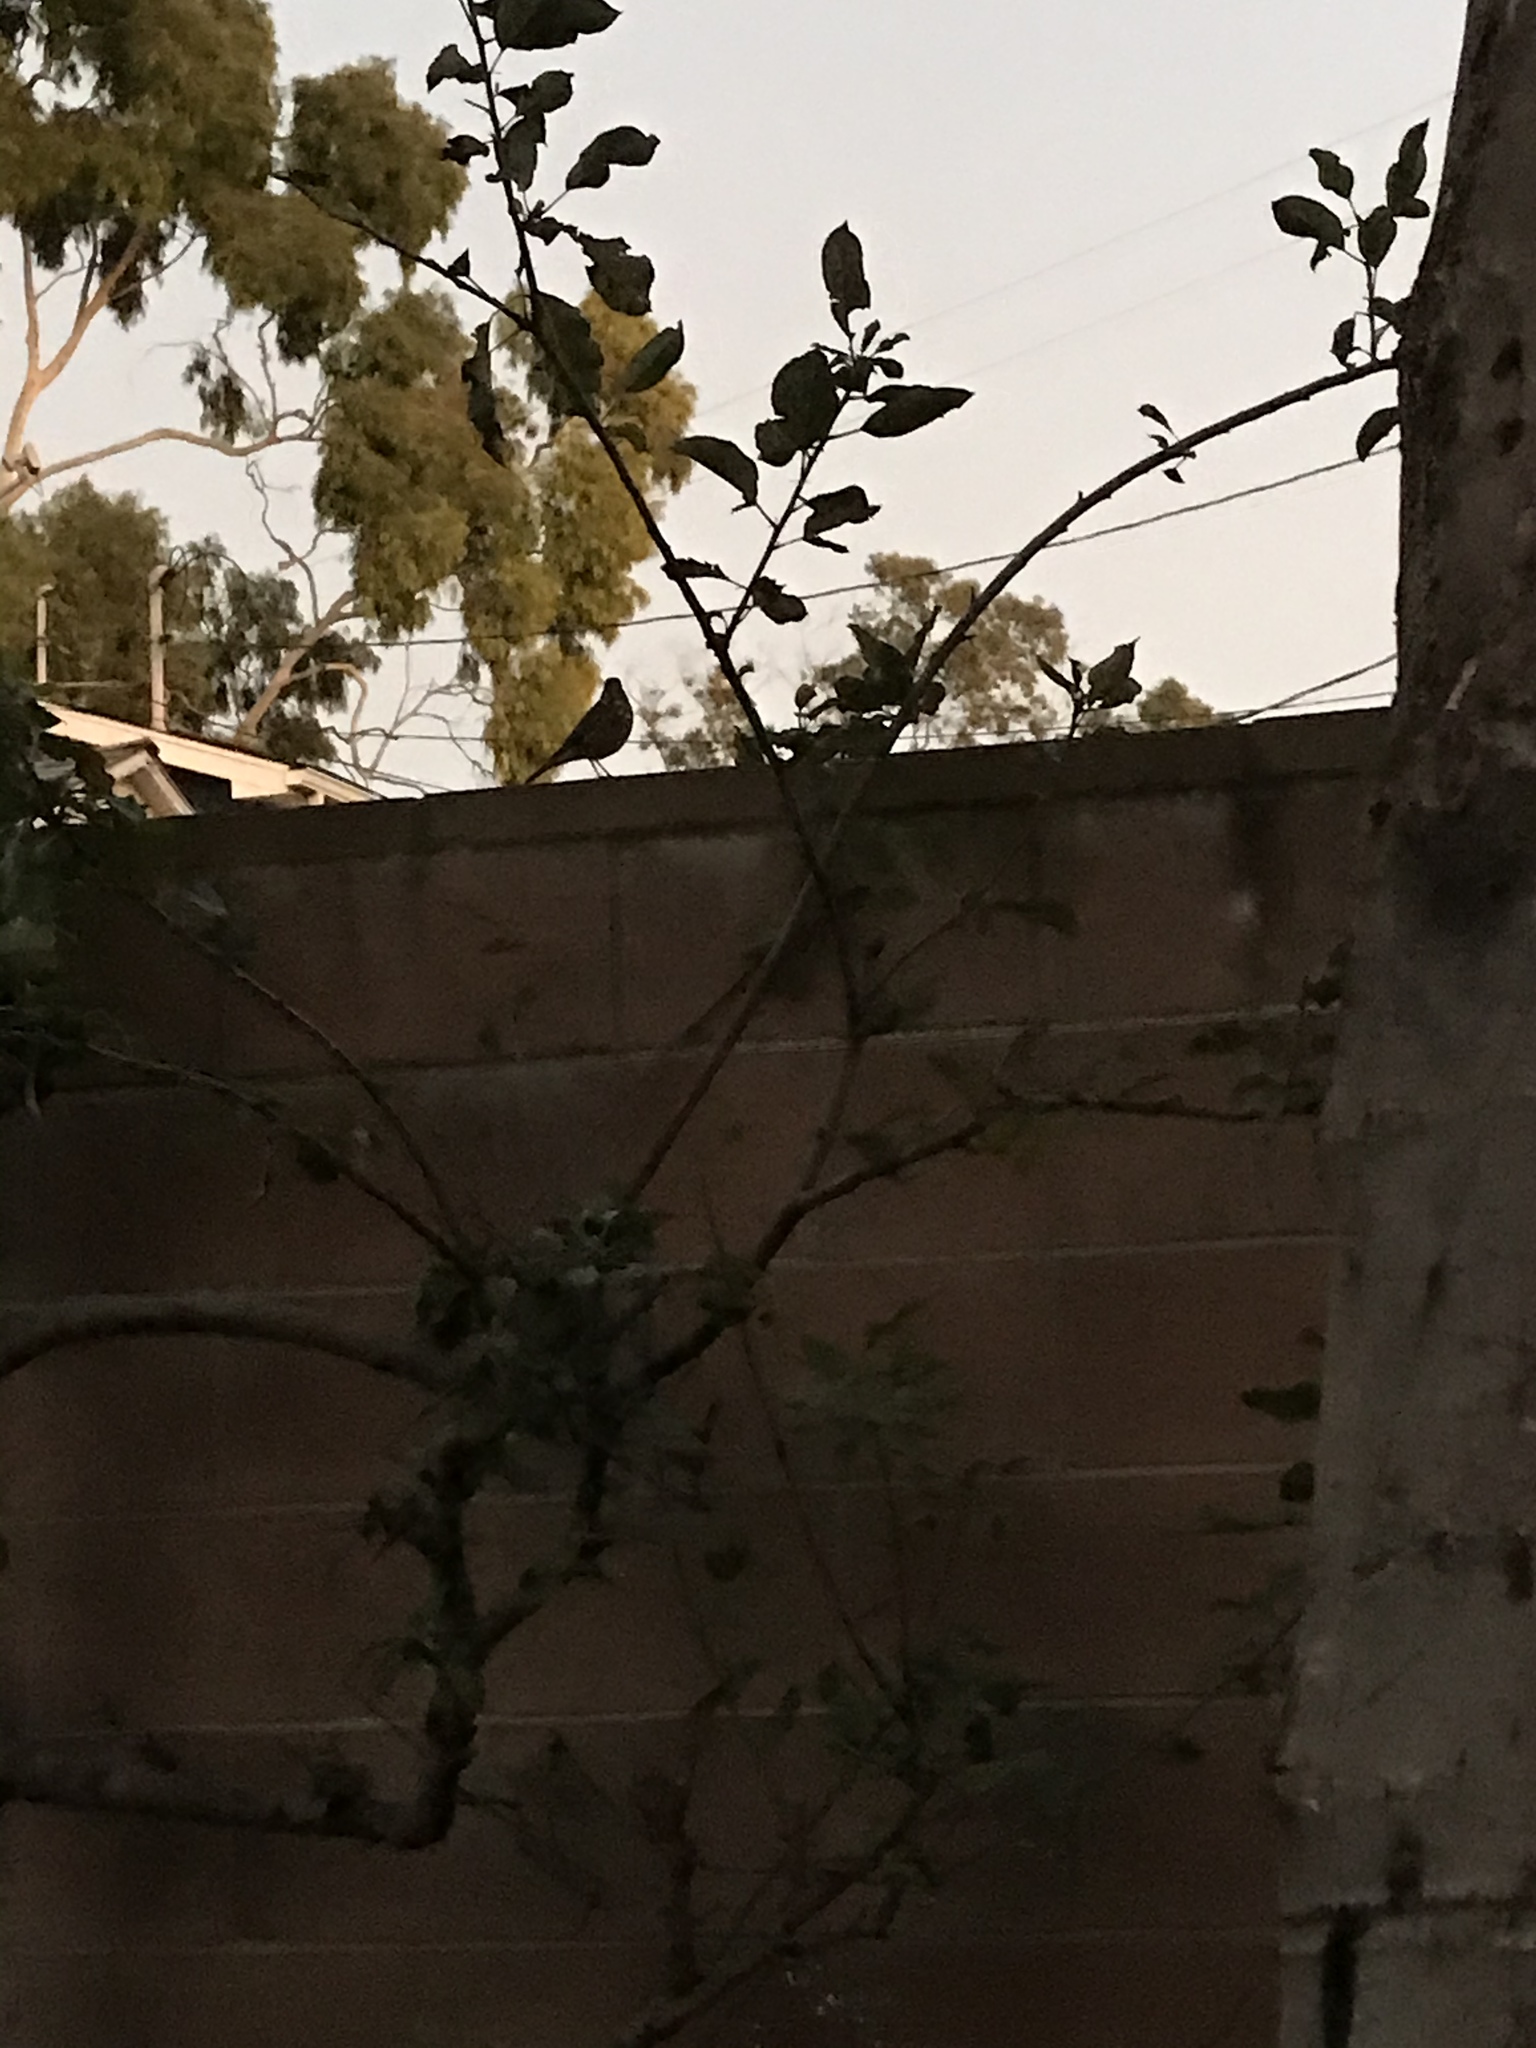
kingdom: Animalia
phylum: Chordata
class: Aves
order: Passeriformes
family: Turdidae
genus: Catharus
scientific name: Catharus guttatus
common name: Hermit thrush
